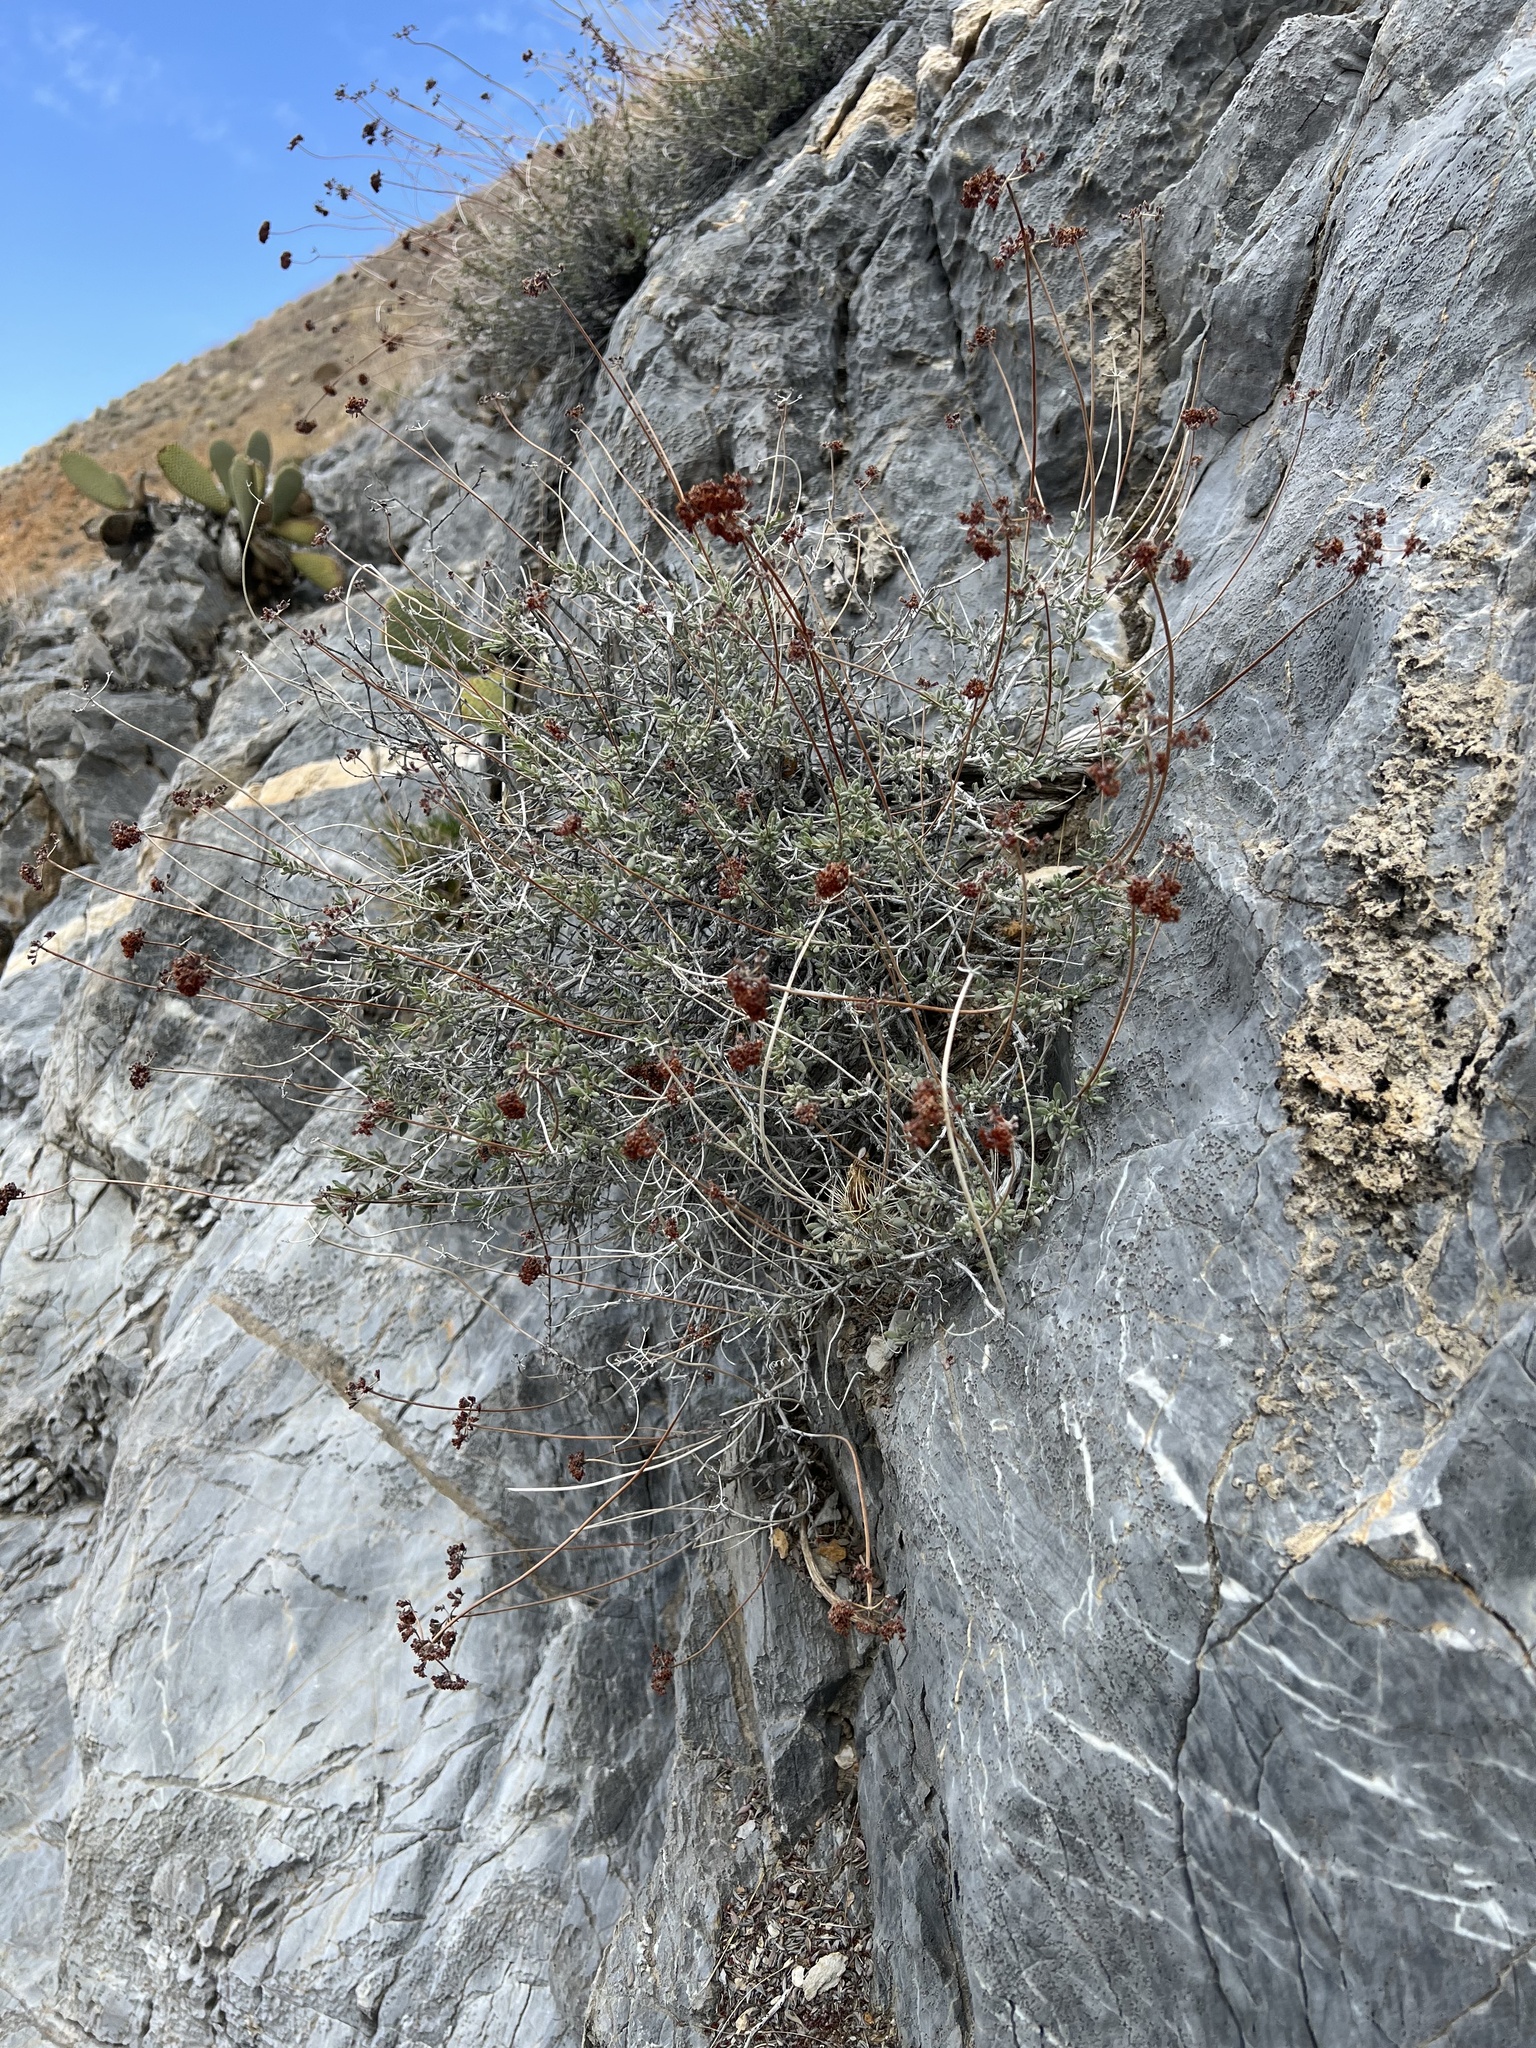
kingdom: Plantae
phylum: Tracheophyta
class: Magnoliopsida
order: Caryophyllales
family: Polygonaceae
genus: Eriogonum
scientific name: Eriogonum fasciculatum
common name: California wild buckwheat
